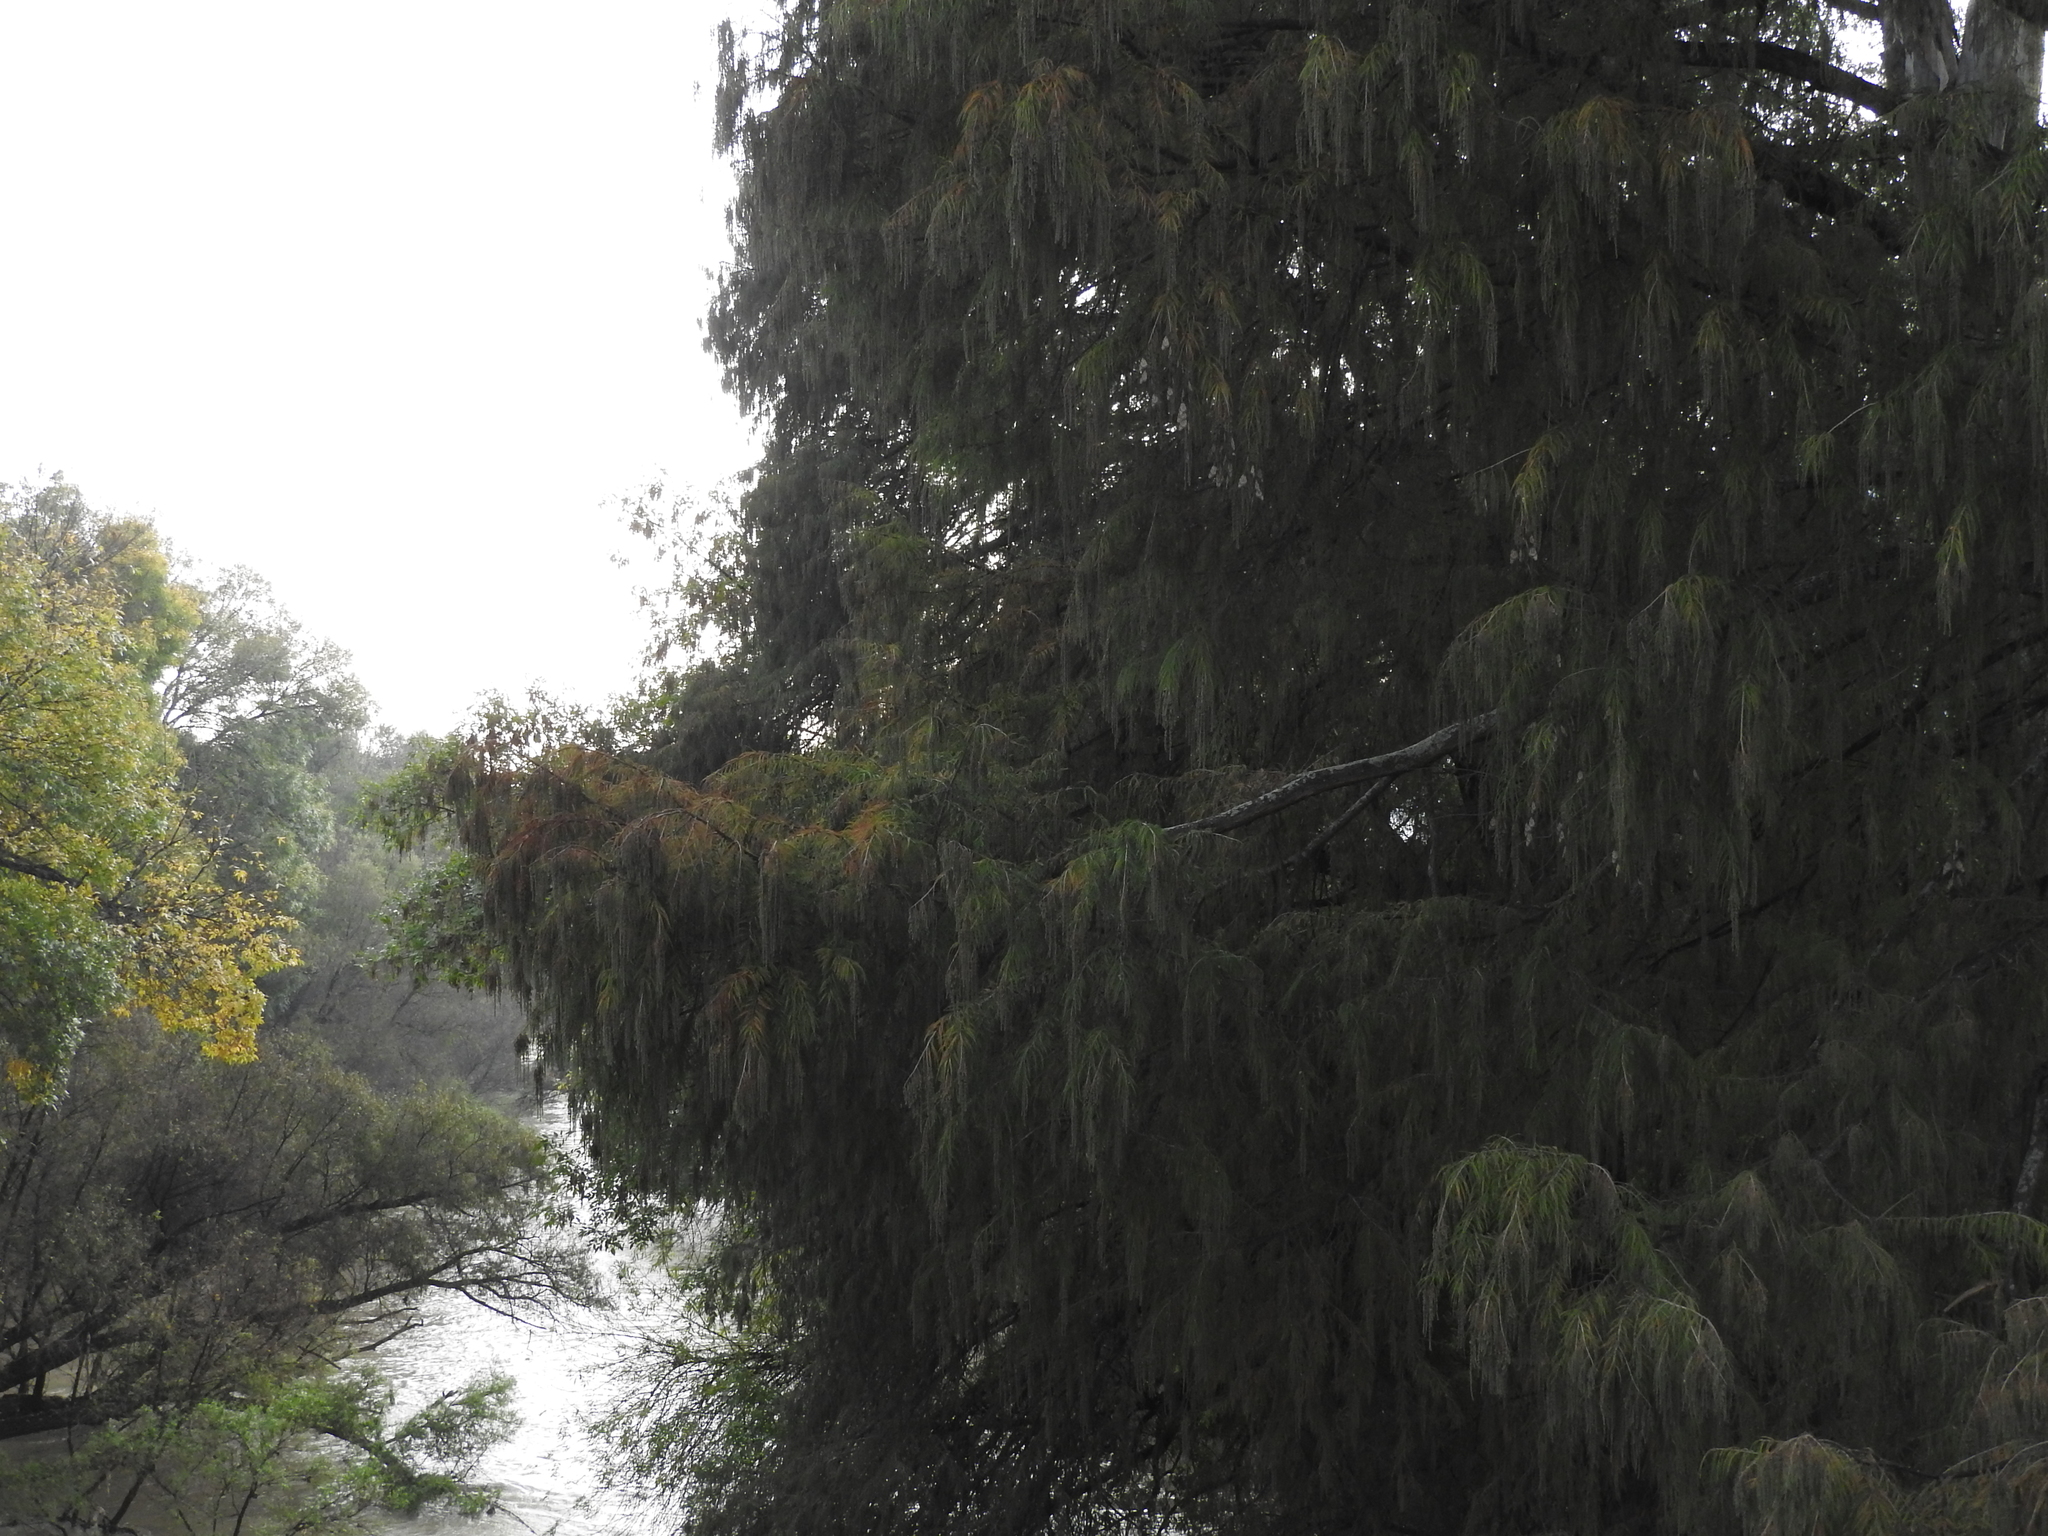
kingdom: Animalia
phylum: Arthropoda
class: Insecta
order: Lepidoptera
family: Nymphalidae
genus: Danaus
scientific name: Danaus plexippus
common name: Monarch
